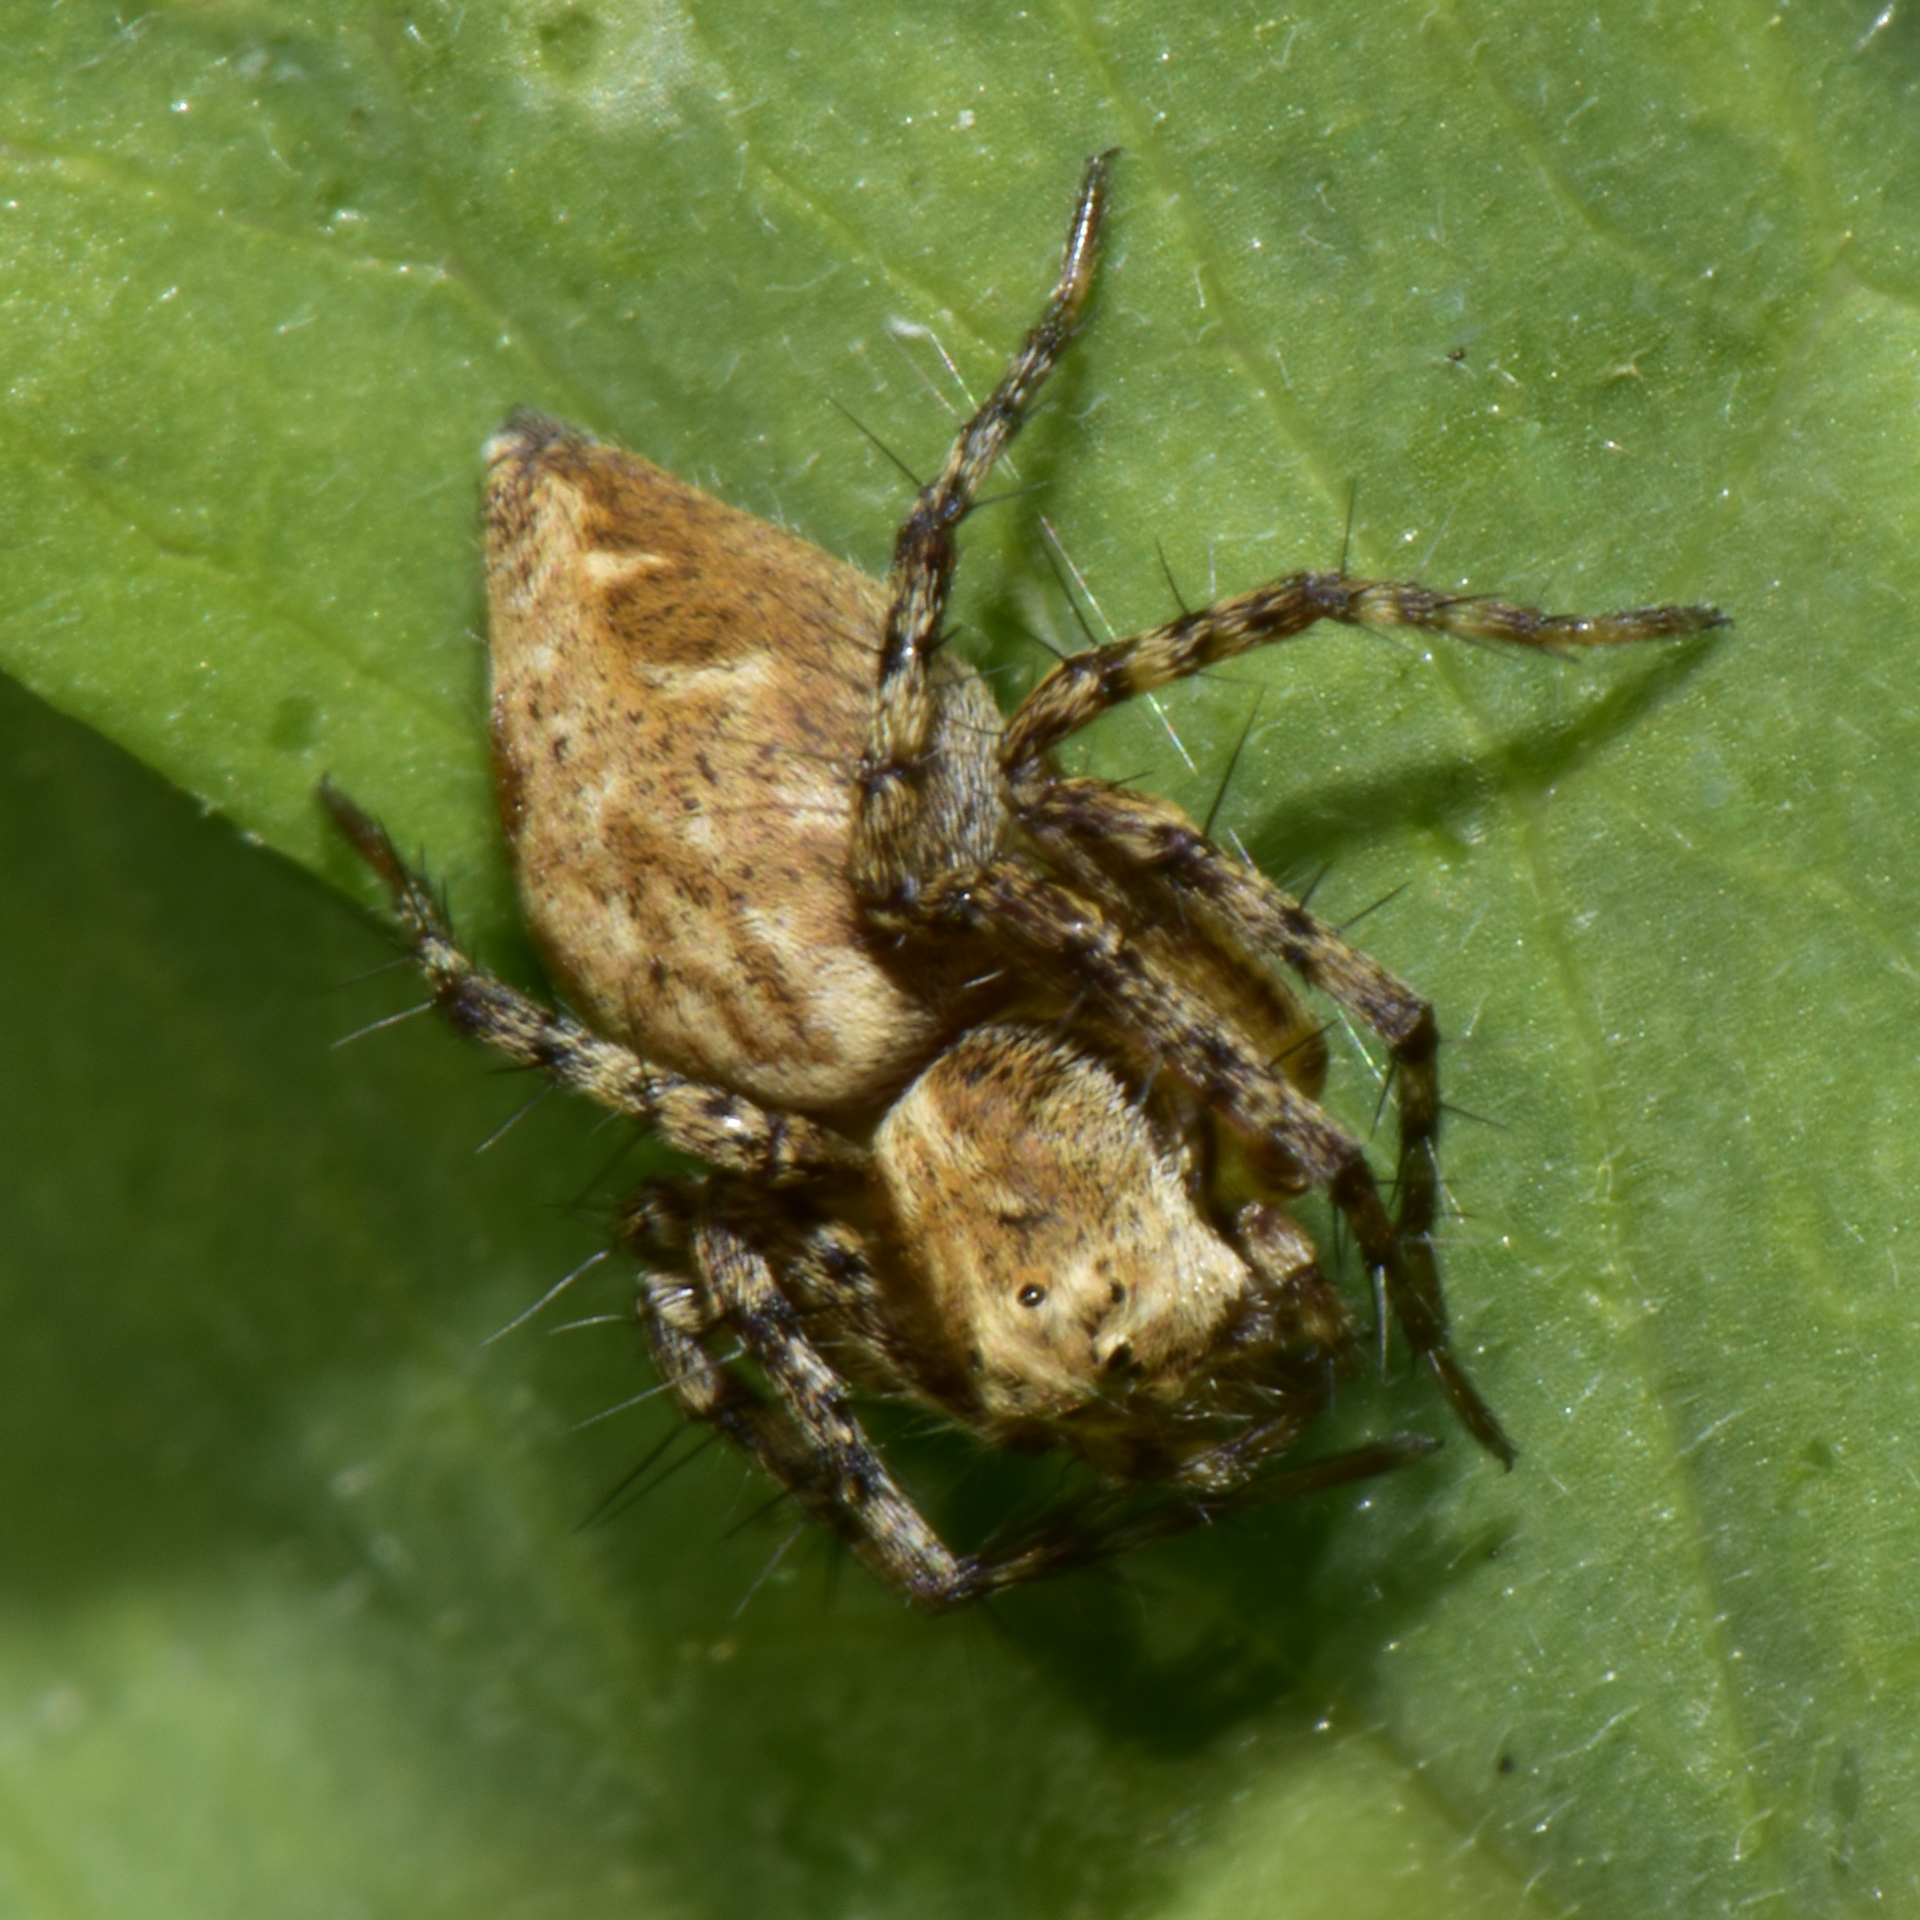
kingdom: Animalia
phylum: Arthropoda
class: Arachnida
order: Araneae
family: Oxyopidae
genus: Oxyopes
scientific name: Oxyopes scalaris
